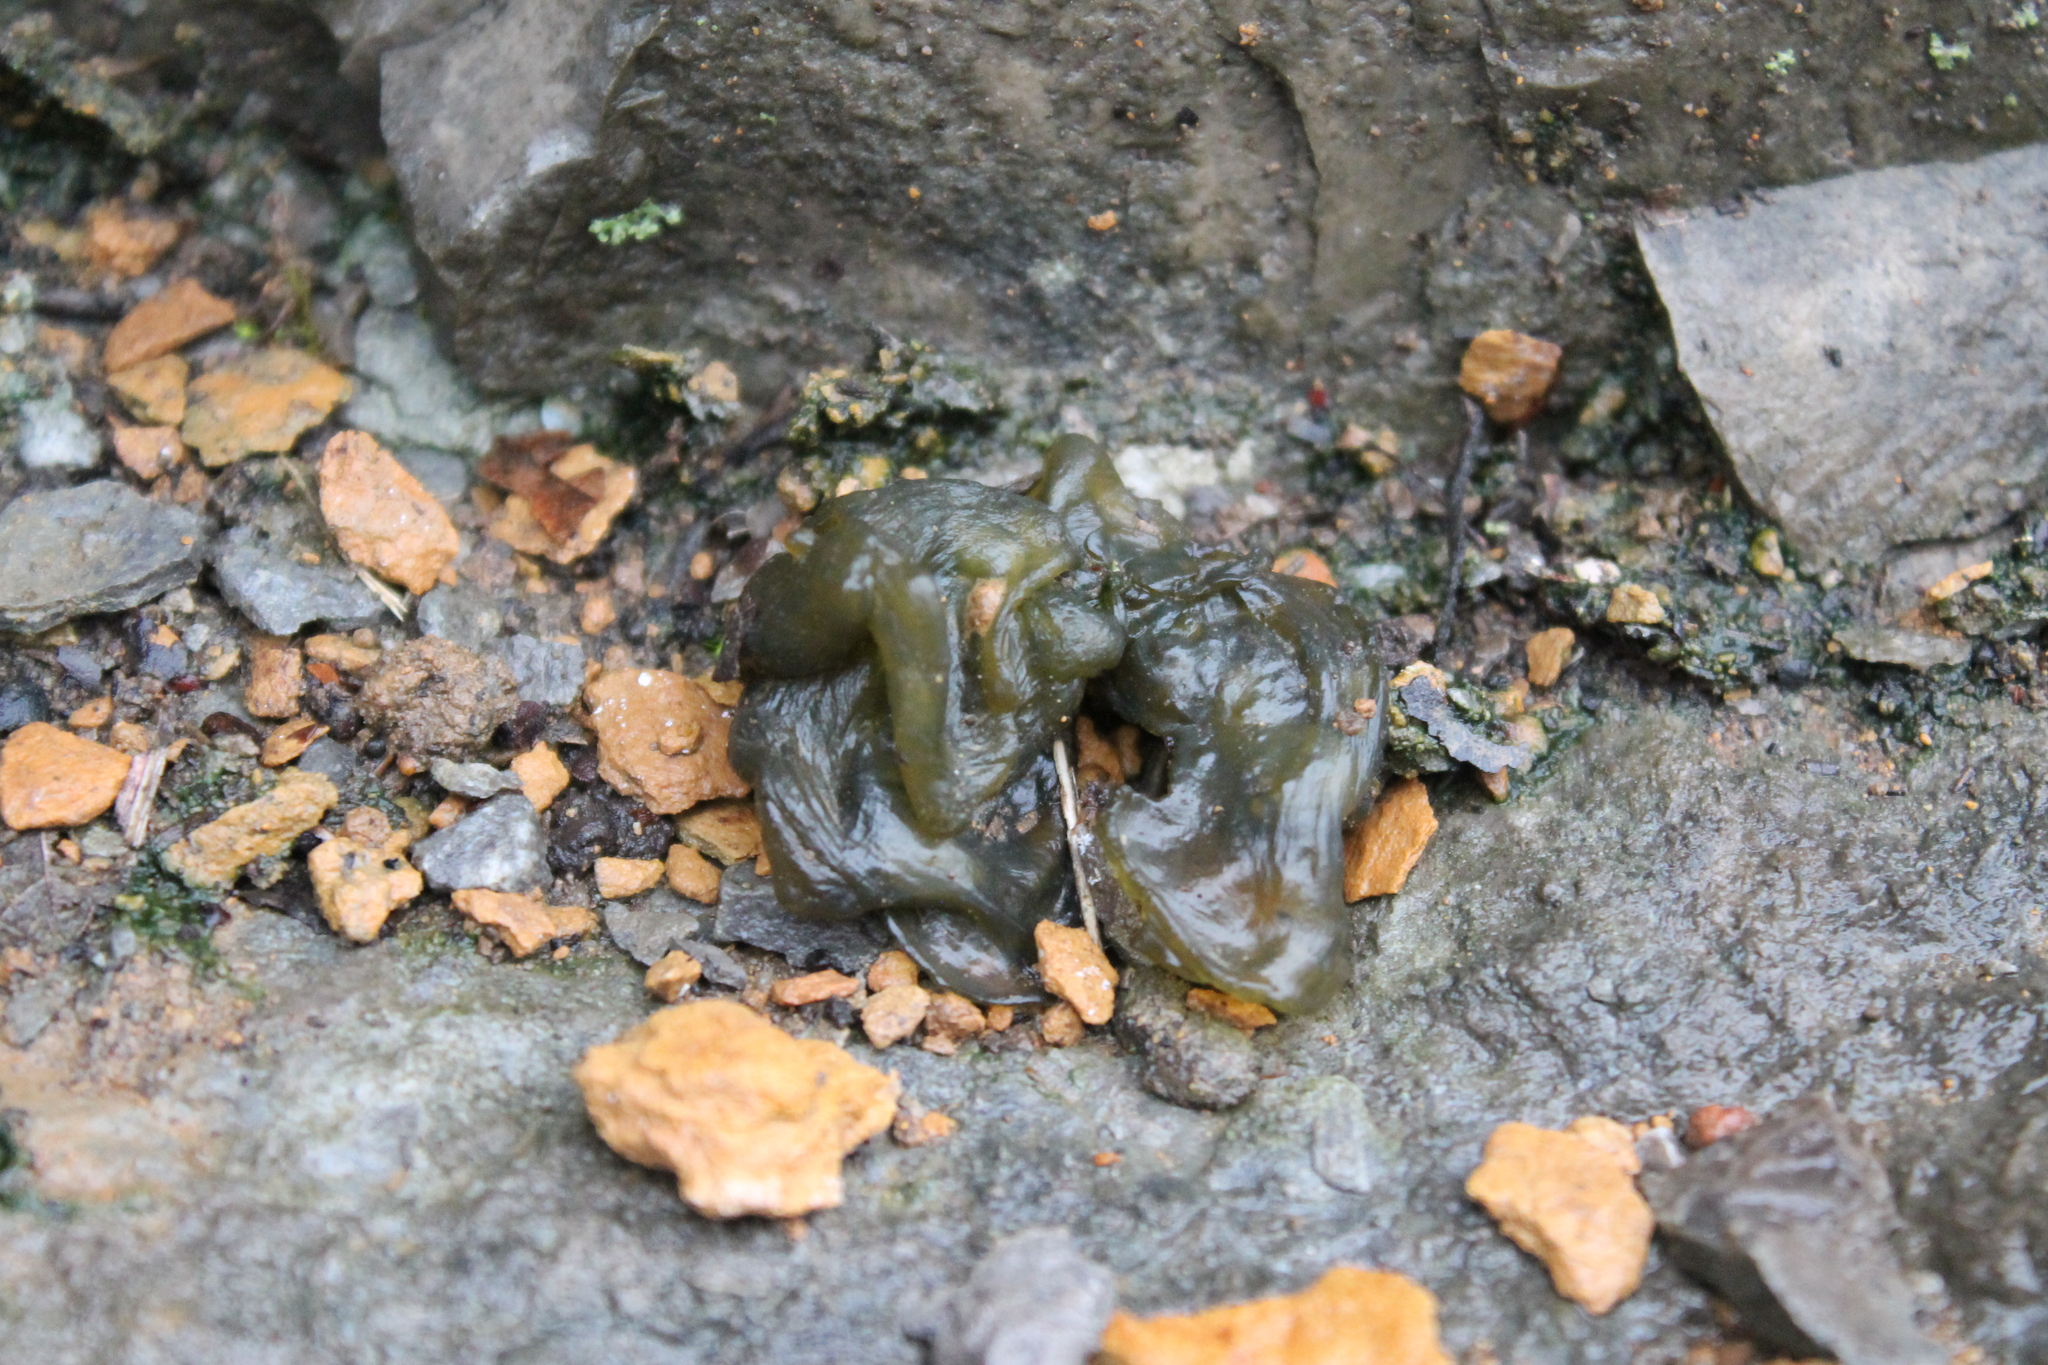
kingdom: Bacteria
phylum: Cyanobacteria
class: Cyanobacteriia
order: Cyanobacteriales
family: Nostocaceae
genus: Nostoc
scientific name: Nostoc commune
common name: Star jelly
